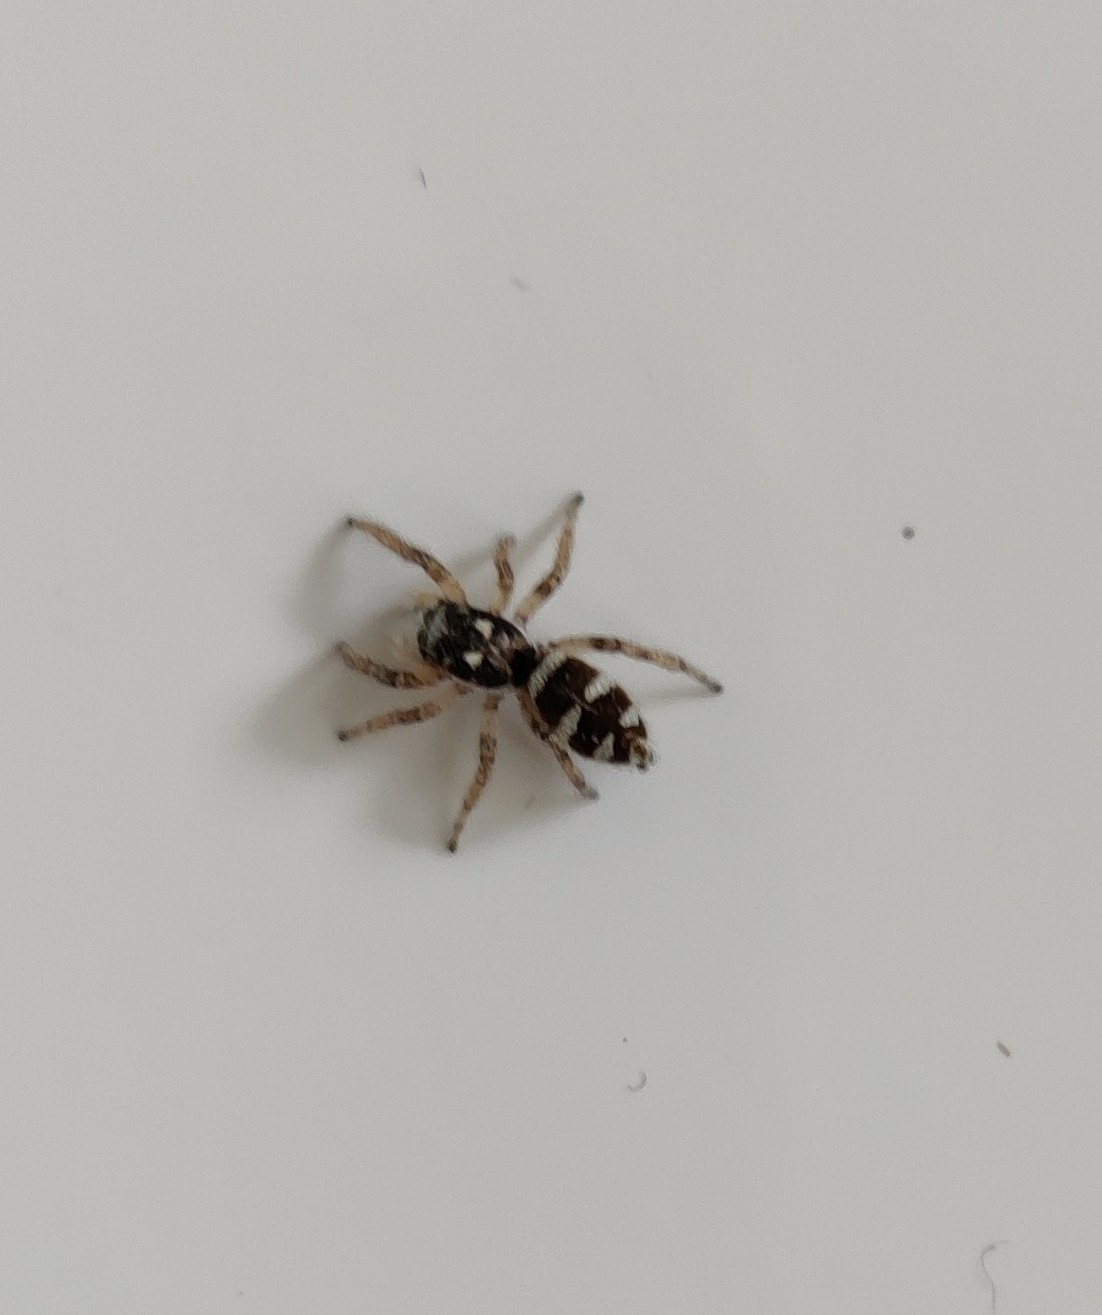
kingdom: Animalia
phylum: Arthropoda
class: Arachnida
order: Araneae
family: Salticidae
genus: Salticus
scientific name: Salticus scenicus
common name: Zebra jumper
